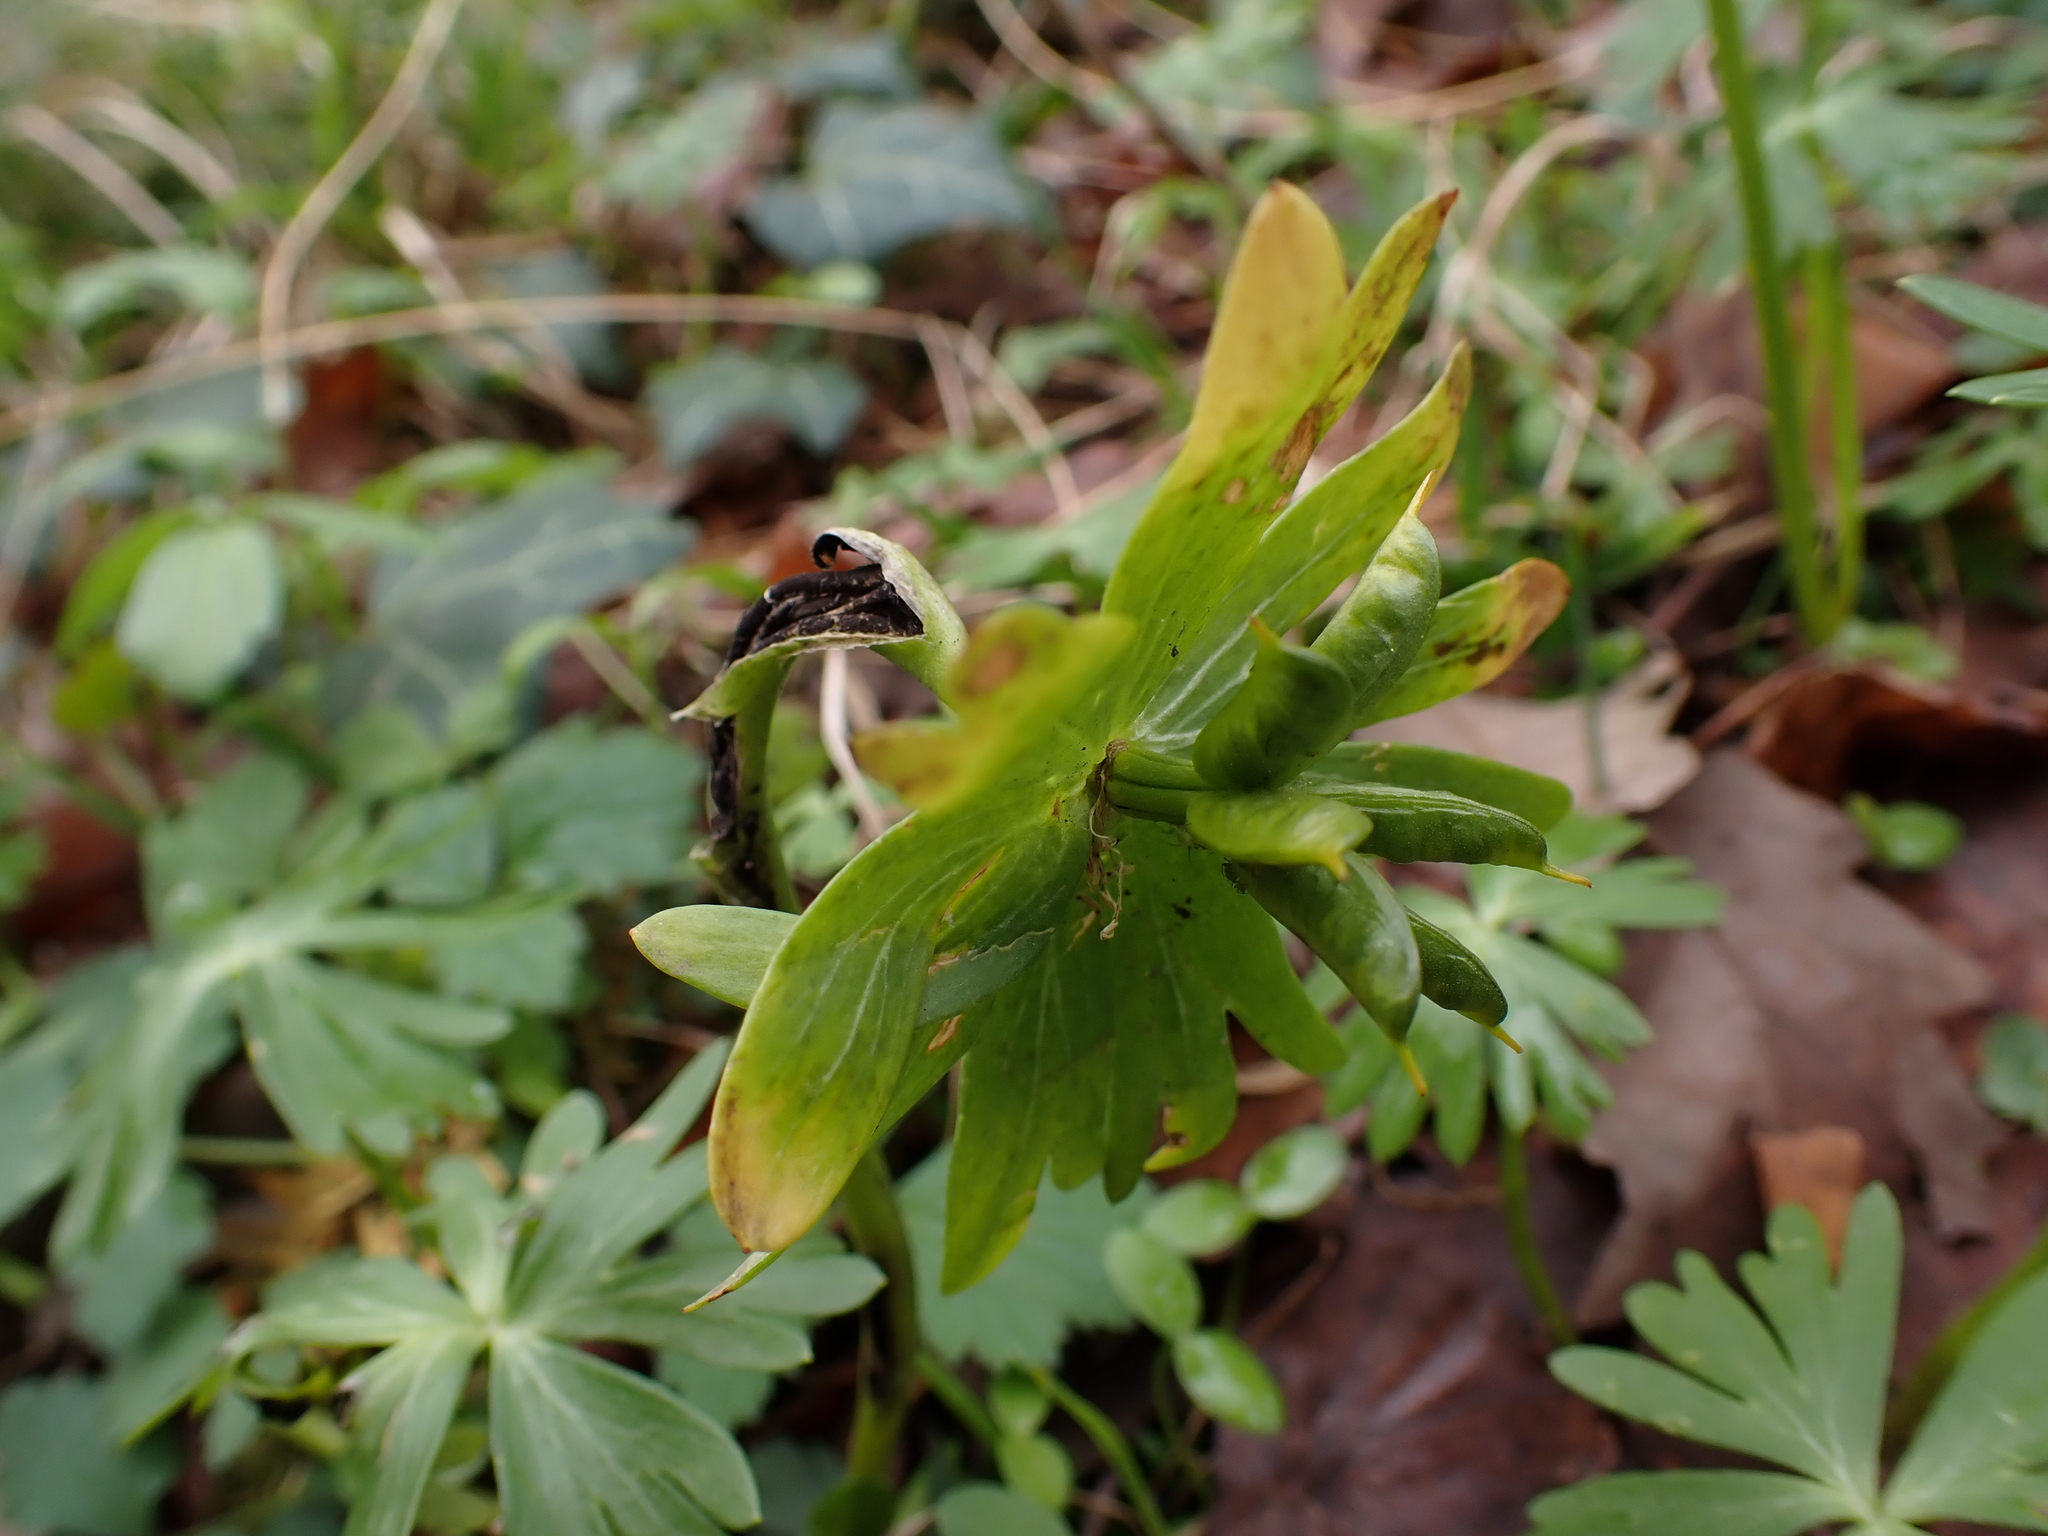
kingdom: Fungi
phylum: Basidiomycota
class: Ustilaginomycetes
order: Urocystidales
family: Urocystidaceae
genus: Urocystis
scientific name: Urocystis eranthidis
